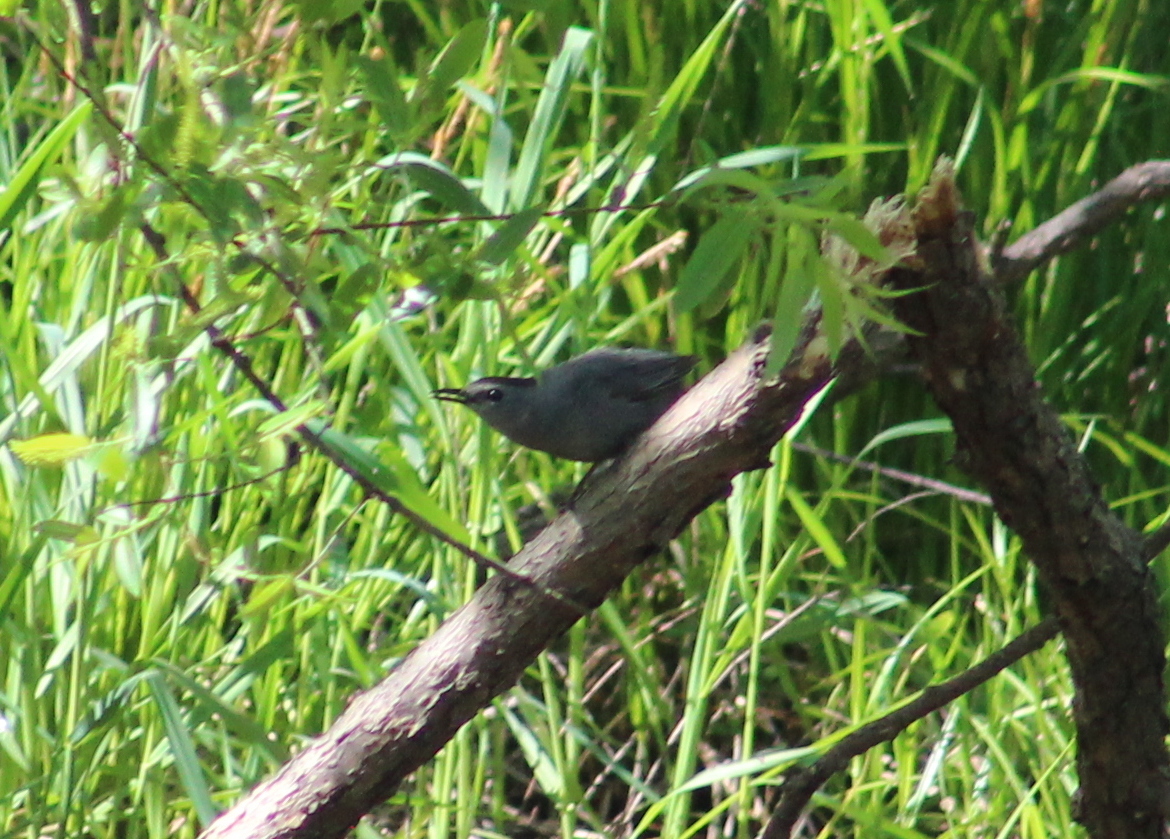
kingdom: Animalia
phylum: Chordata
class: Aves
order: Passeriformes
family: Mimidae
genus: Dumetella
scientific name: Dumetella carolinensis
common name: Gray catbird
